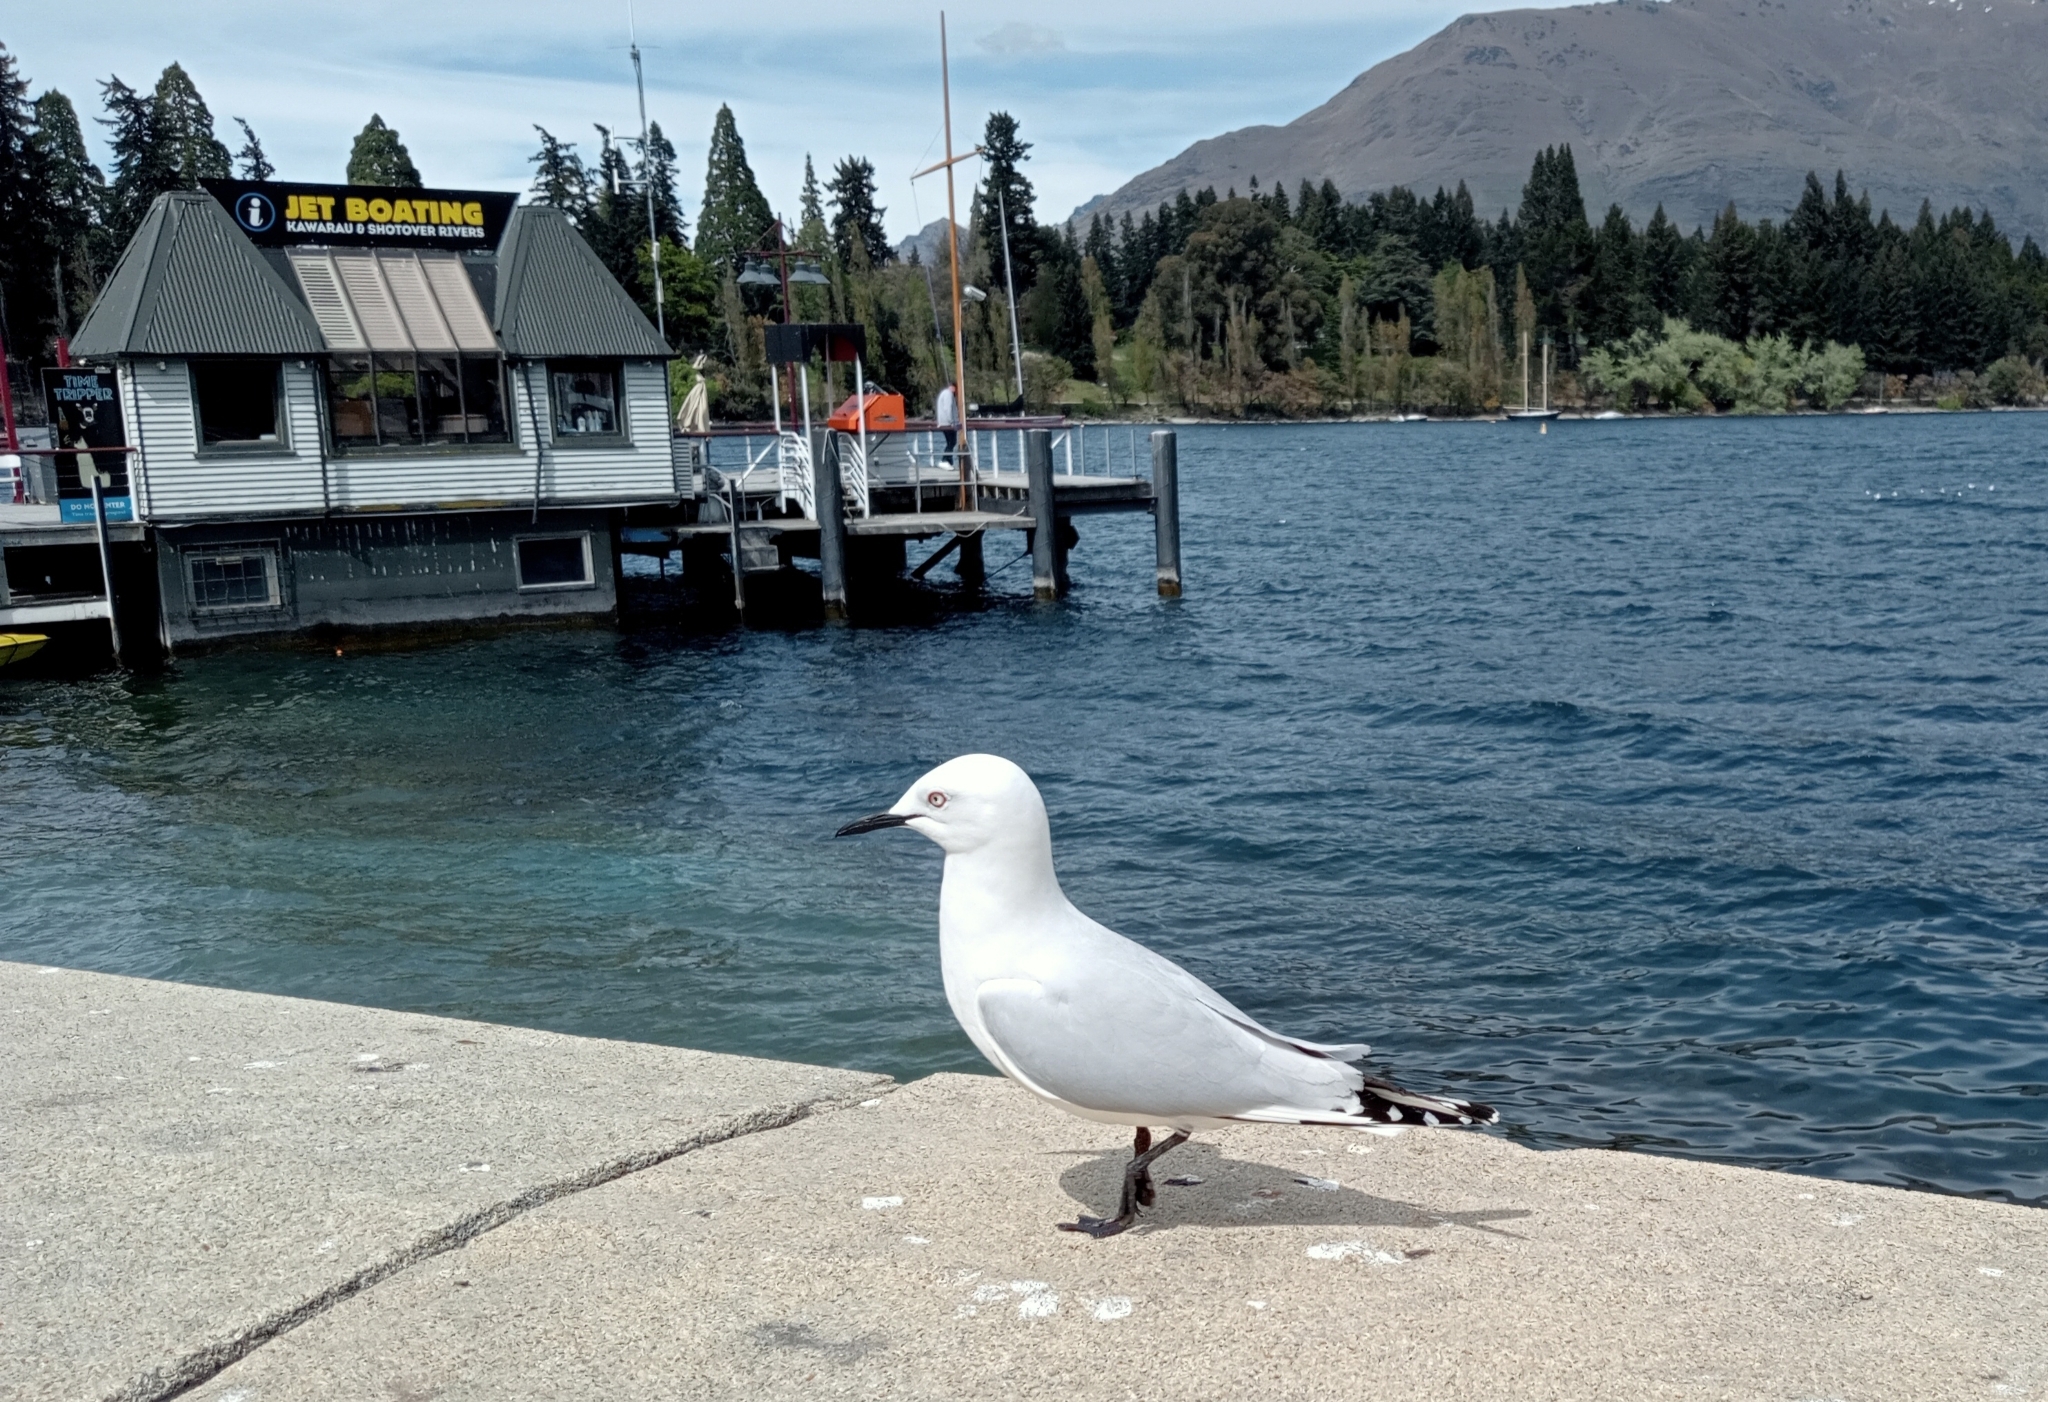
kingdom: Animalia
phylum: Chordata
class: Aves
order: Charadriiformes
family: Laridae
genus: Chroicocephalus
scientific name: Chroicocephalus bulleri
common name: Black-billed gull
